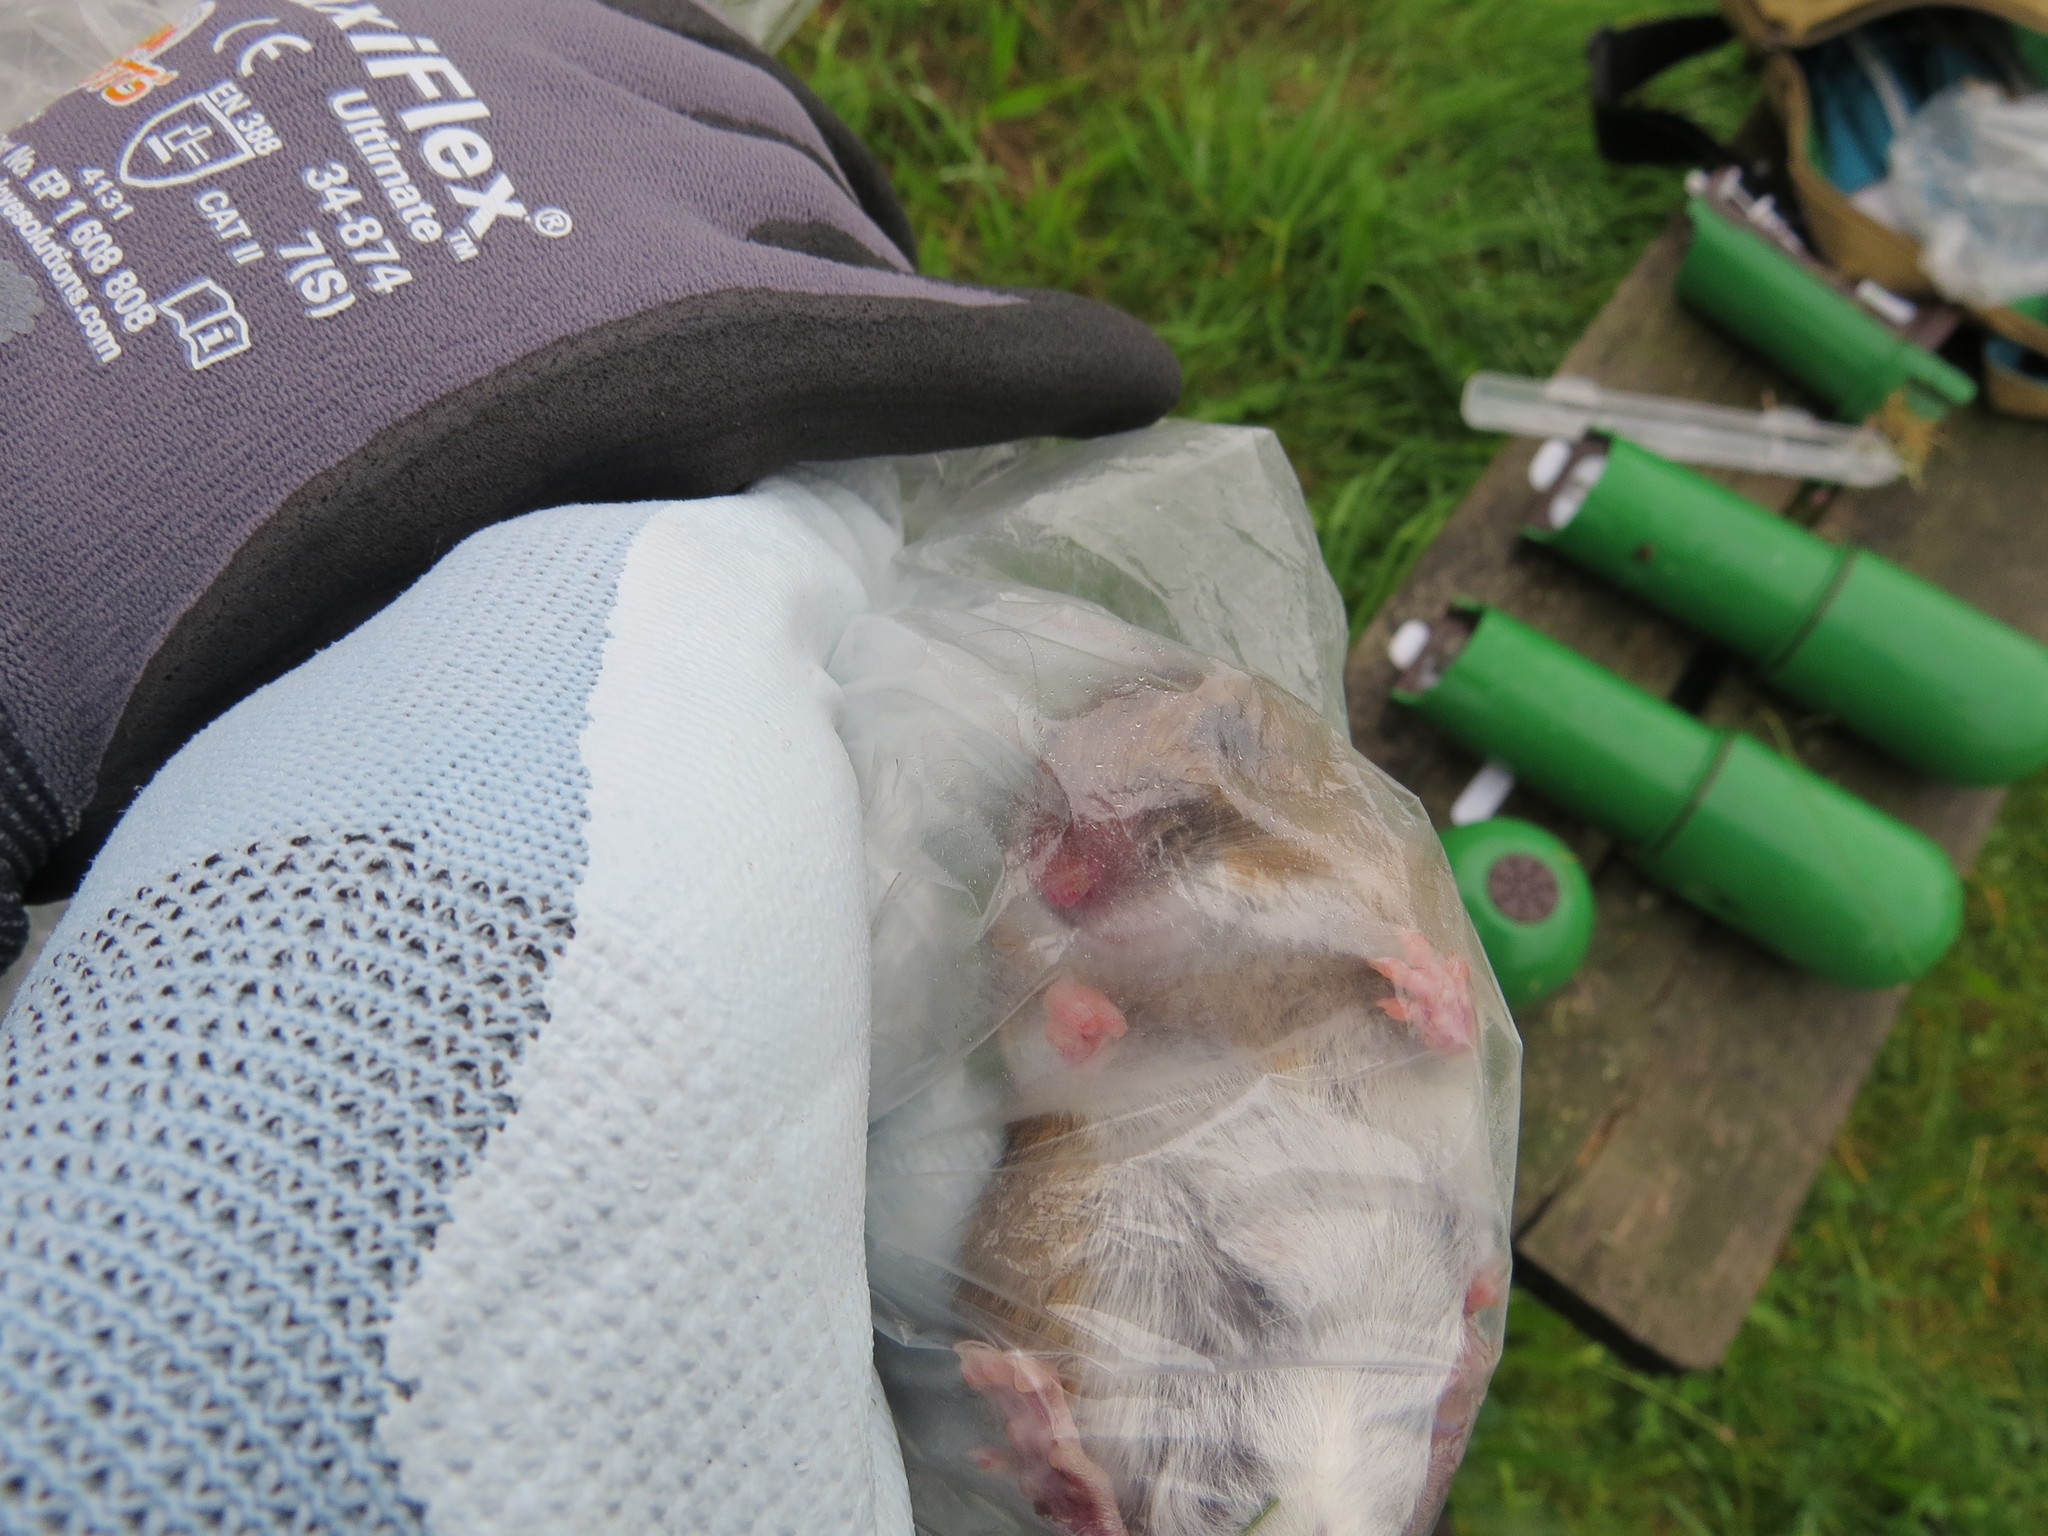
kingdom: Animalia
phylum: Chordata
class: Mammalia
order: Rodentia
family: Muridae
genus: Apodemus
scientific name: Apodemus flavicollis
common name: Yellow-necked field mouse
